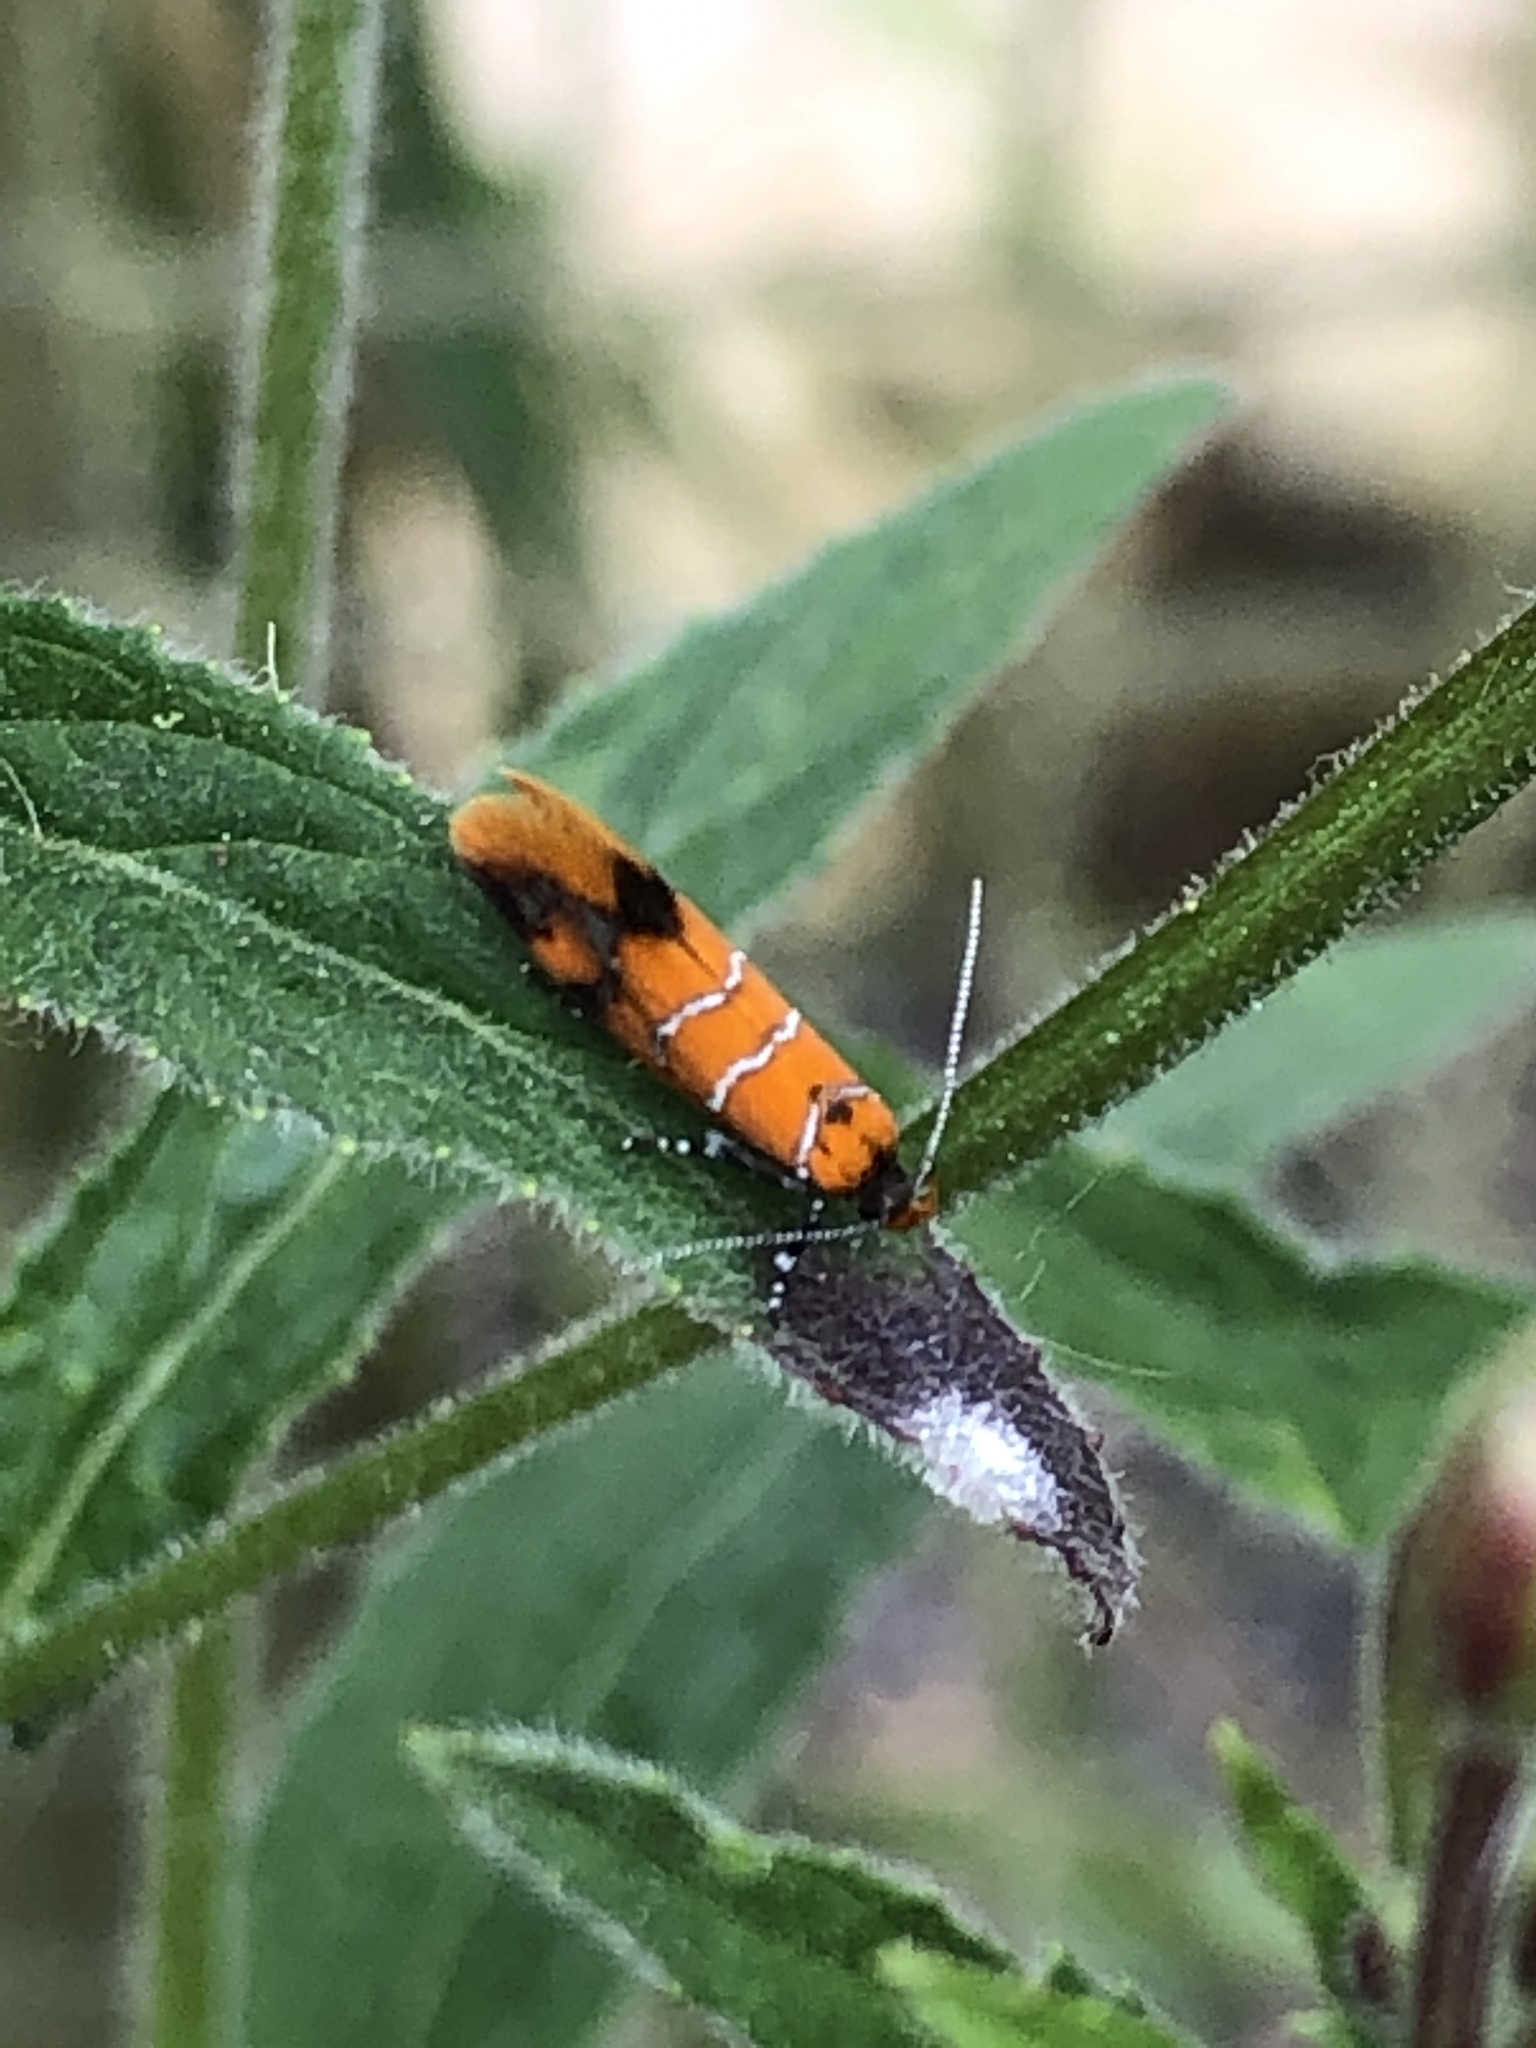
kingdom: Animalia
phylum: Arthropoda
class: Insecta
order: Lepidoptera
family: Oecophoridae
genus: Schiffermuelleria
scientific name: Schiffermuelleria procerella
